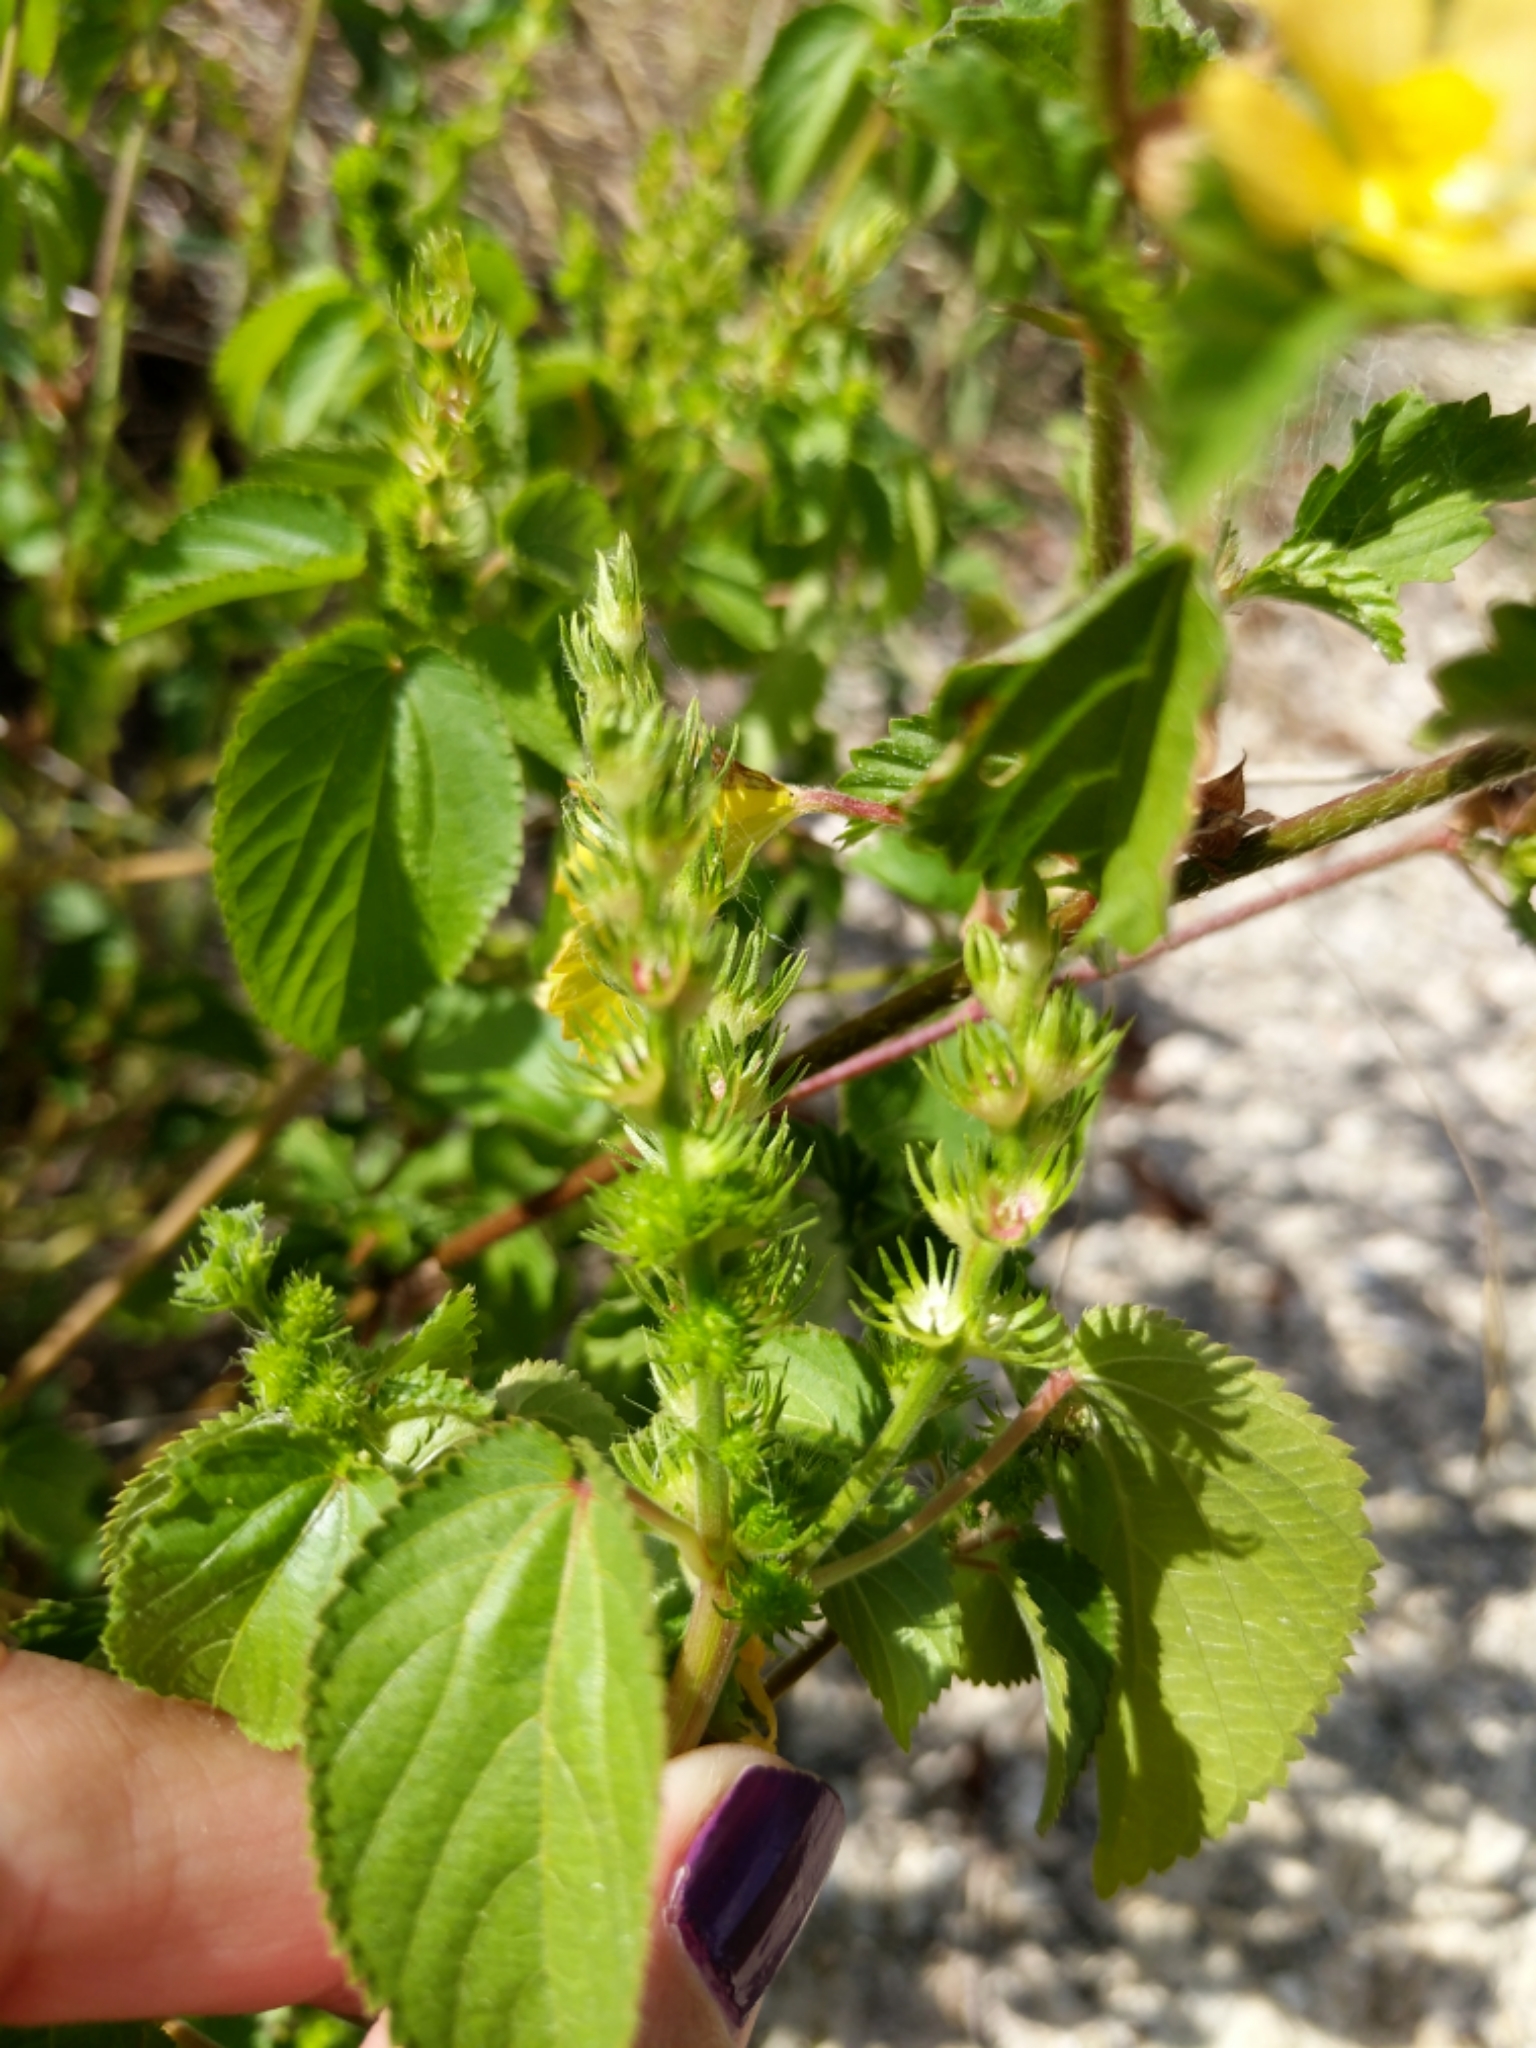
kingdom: Plantae
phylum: Tracheophyta
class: Magnoliopsida
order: Malpighiales
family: Euphorbiaceae
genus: Acalypha
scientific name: Acalypha ostryifolia
